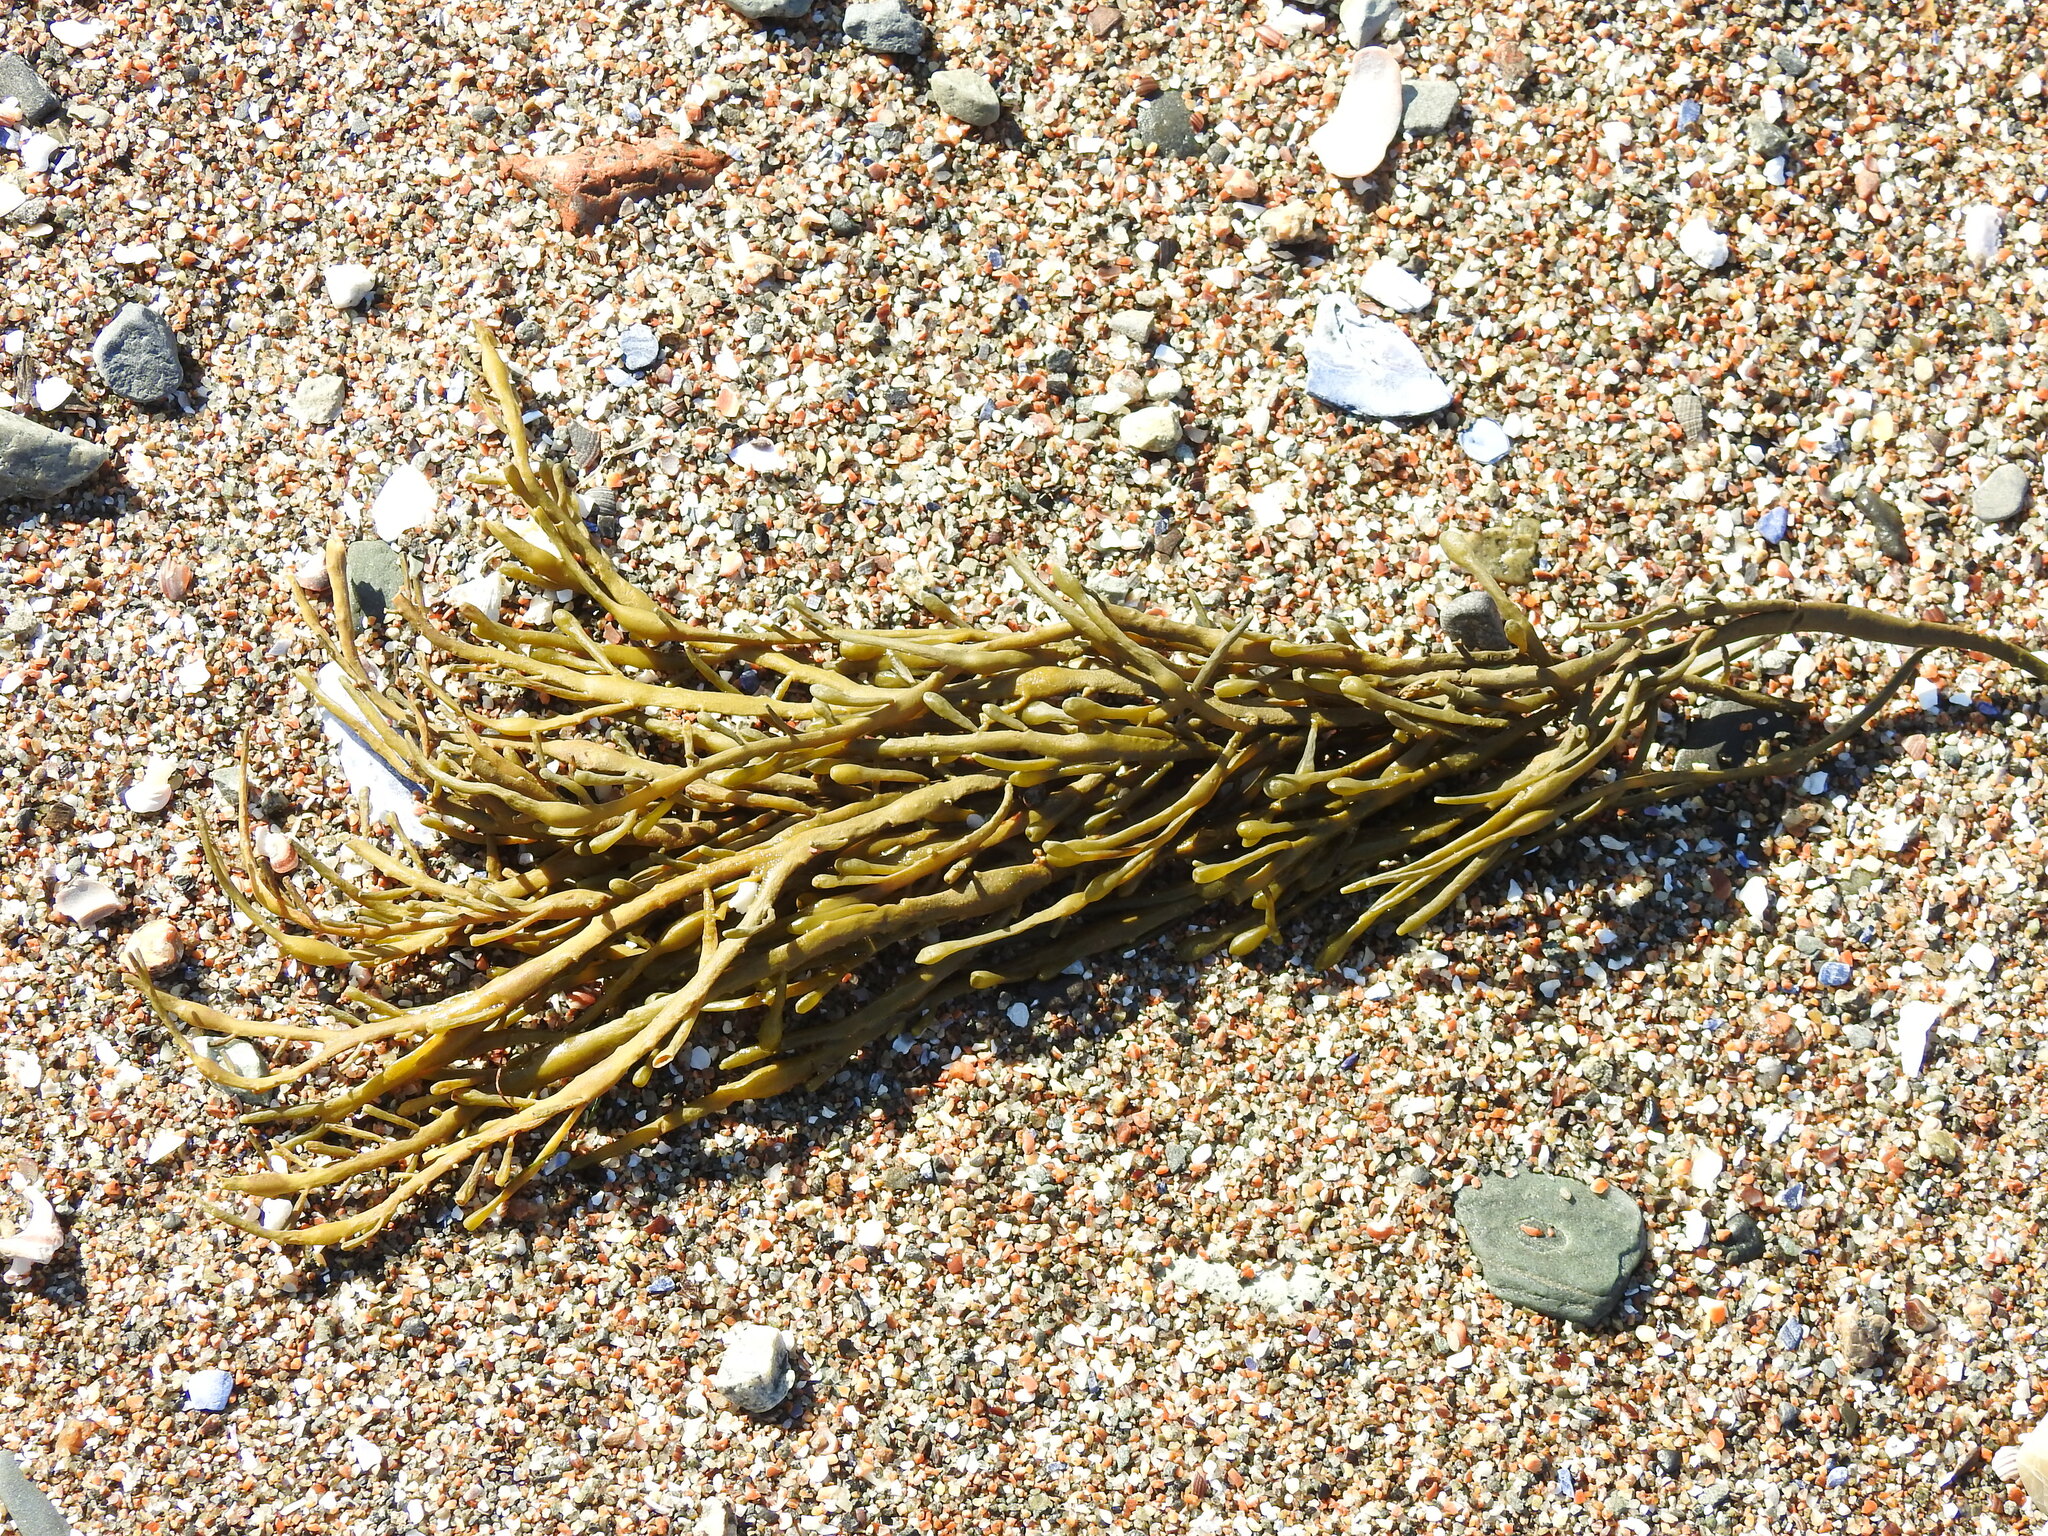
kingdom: Chromista
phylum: Ochrophyta
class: Phaeophyceae
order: Fucales
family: Fucaceae
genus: Ascophyllum
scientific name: Ascophyllum nodosum
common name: Knotted wrack
